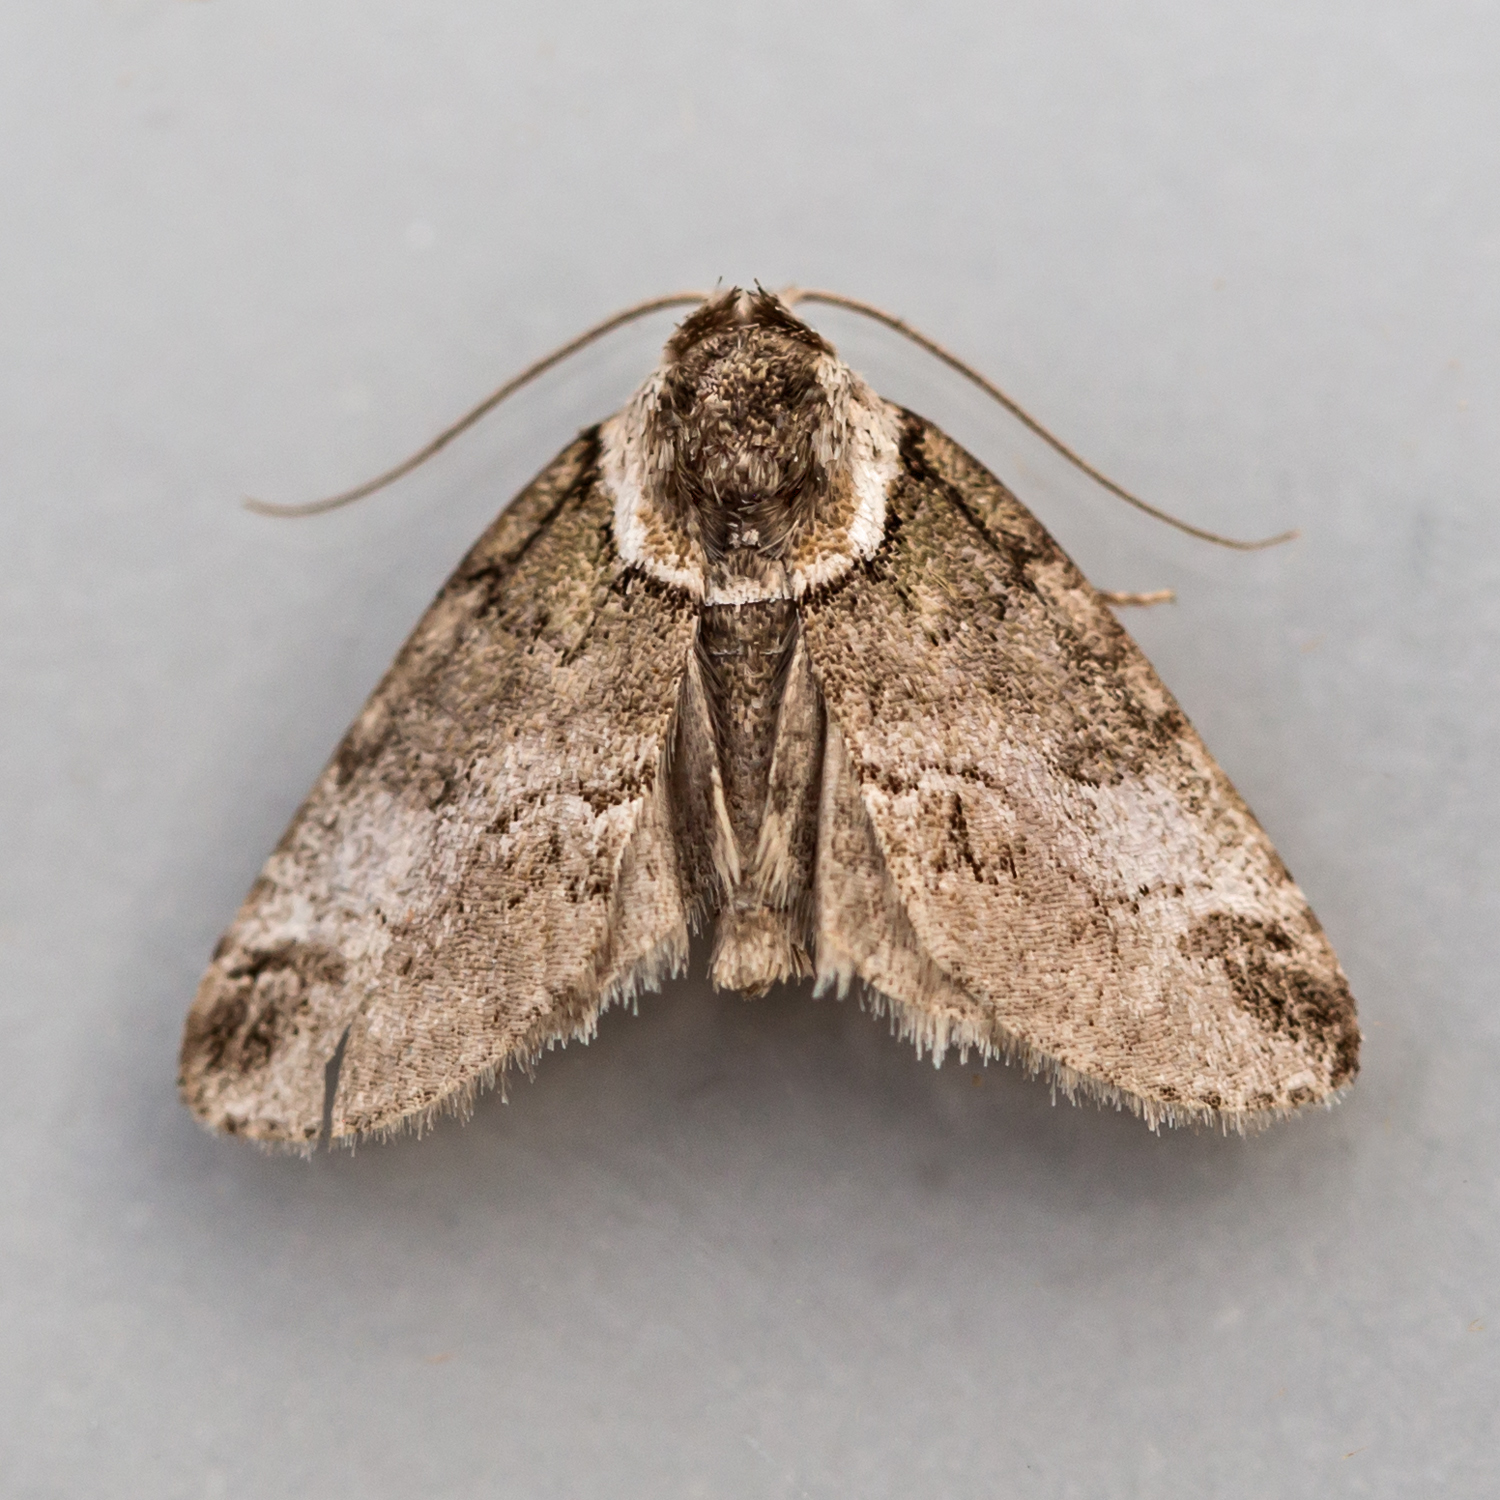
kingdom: Animalia
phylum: Arthropoda
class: Insecta
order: Lepidoptera
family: Nolidae
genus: Baileya
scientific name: Baileya australis
